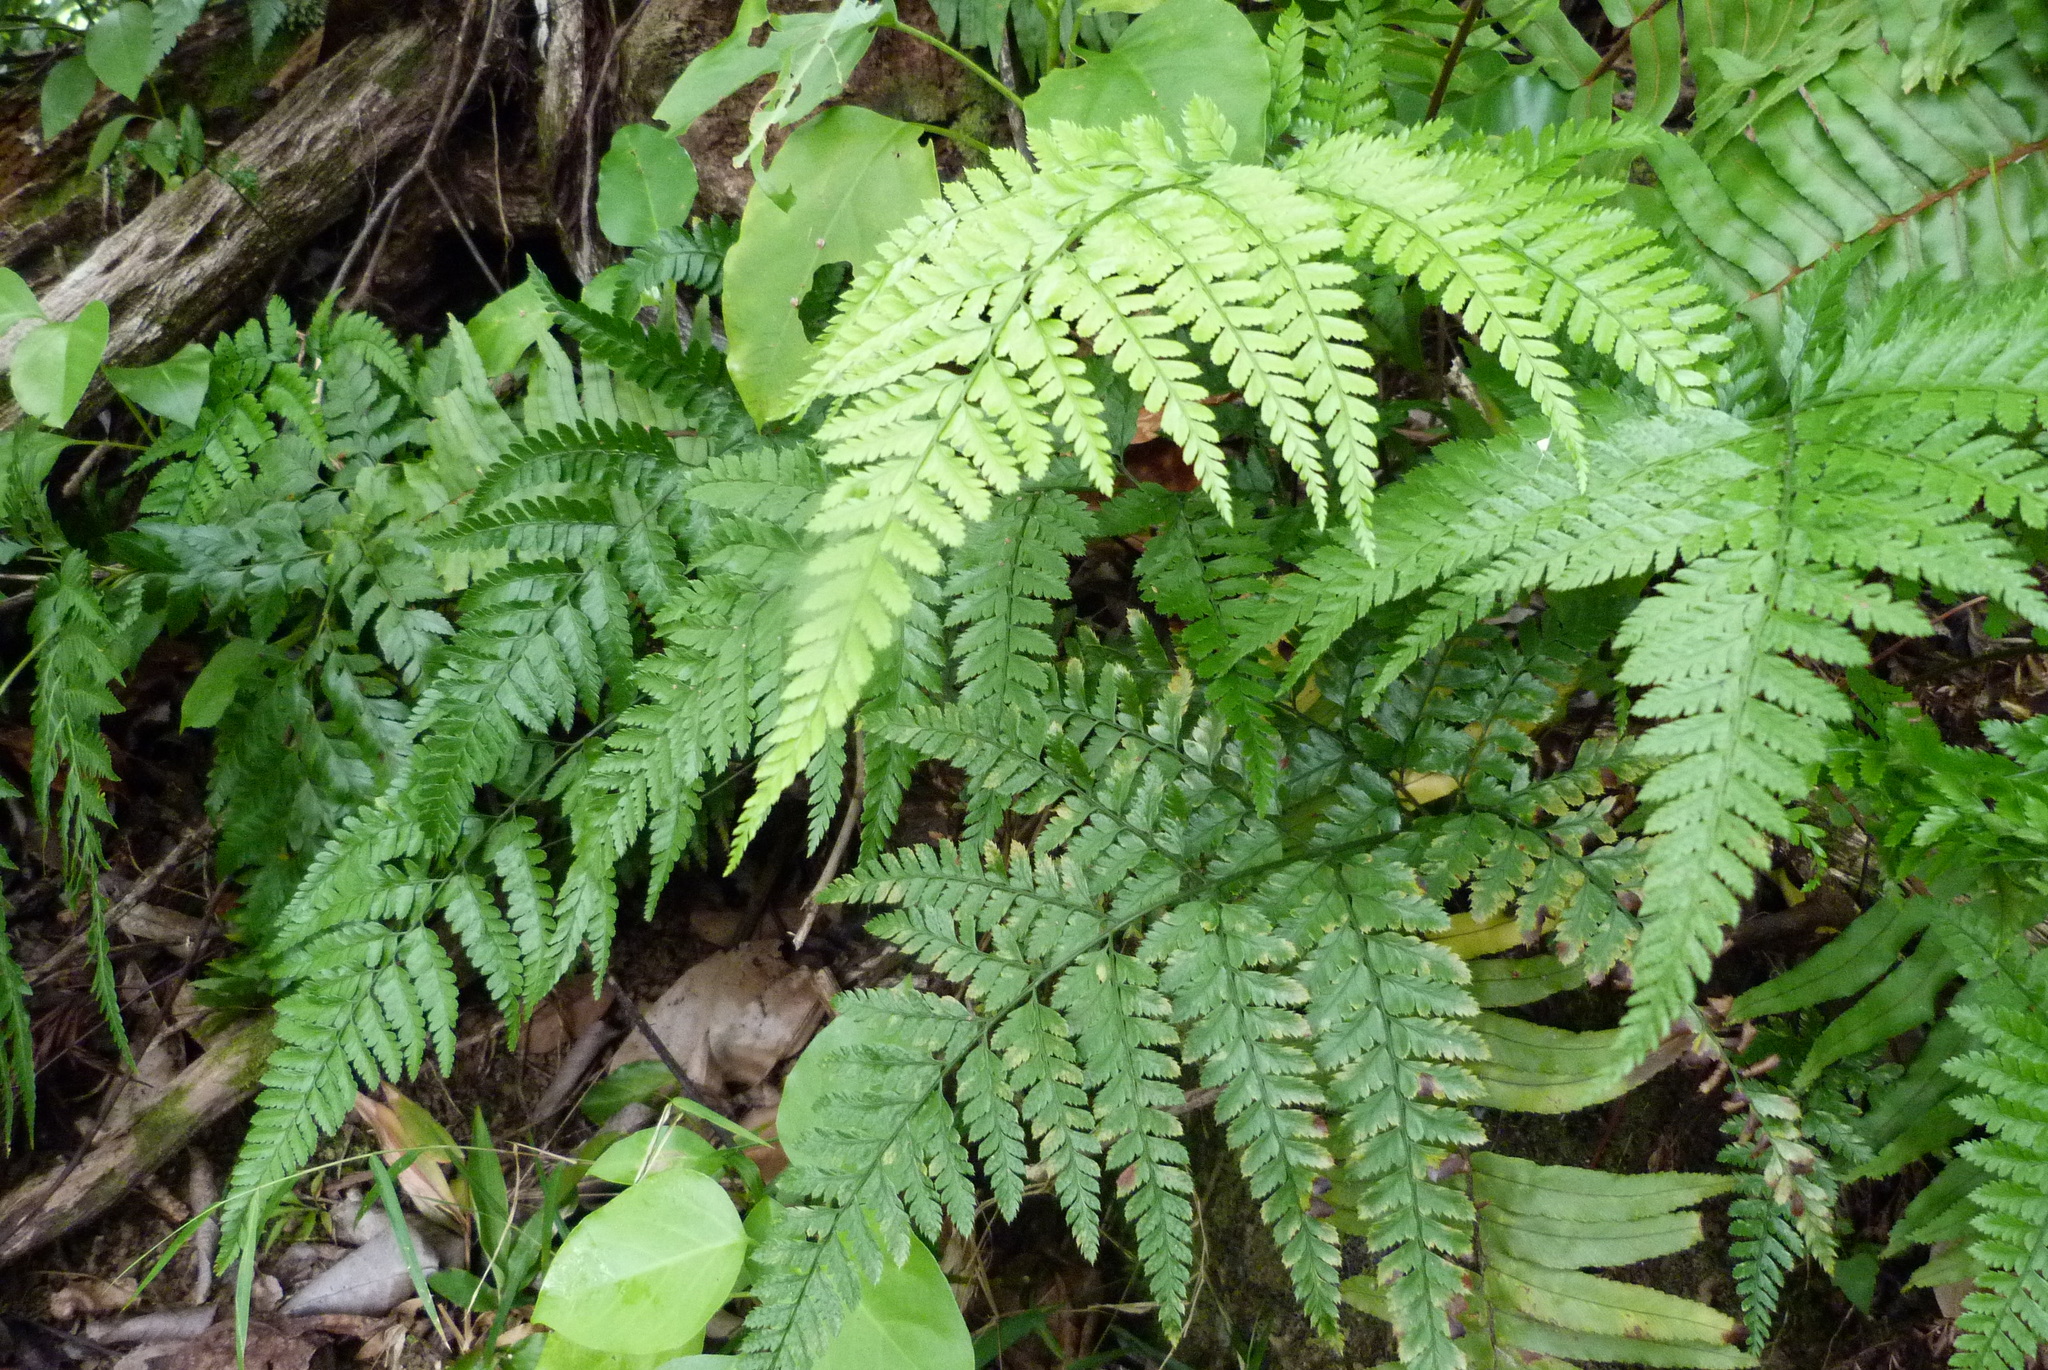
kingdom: Plantae
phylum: Tracheophyta
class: Polypodiopsida
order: Polypodiales
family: Dryopteridaceae
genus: Arachniodes
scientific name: Arachniodes aristata
